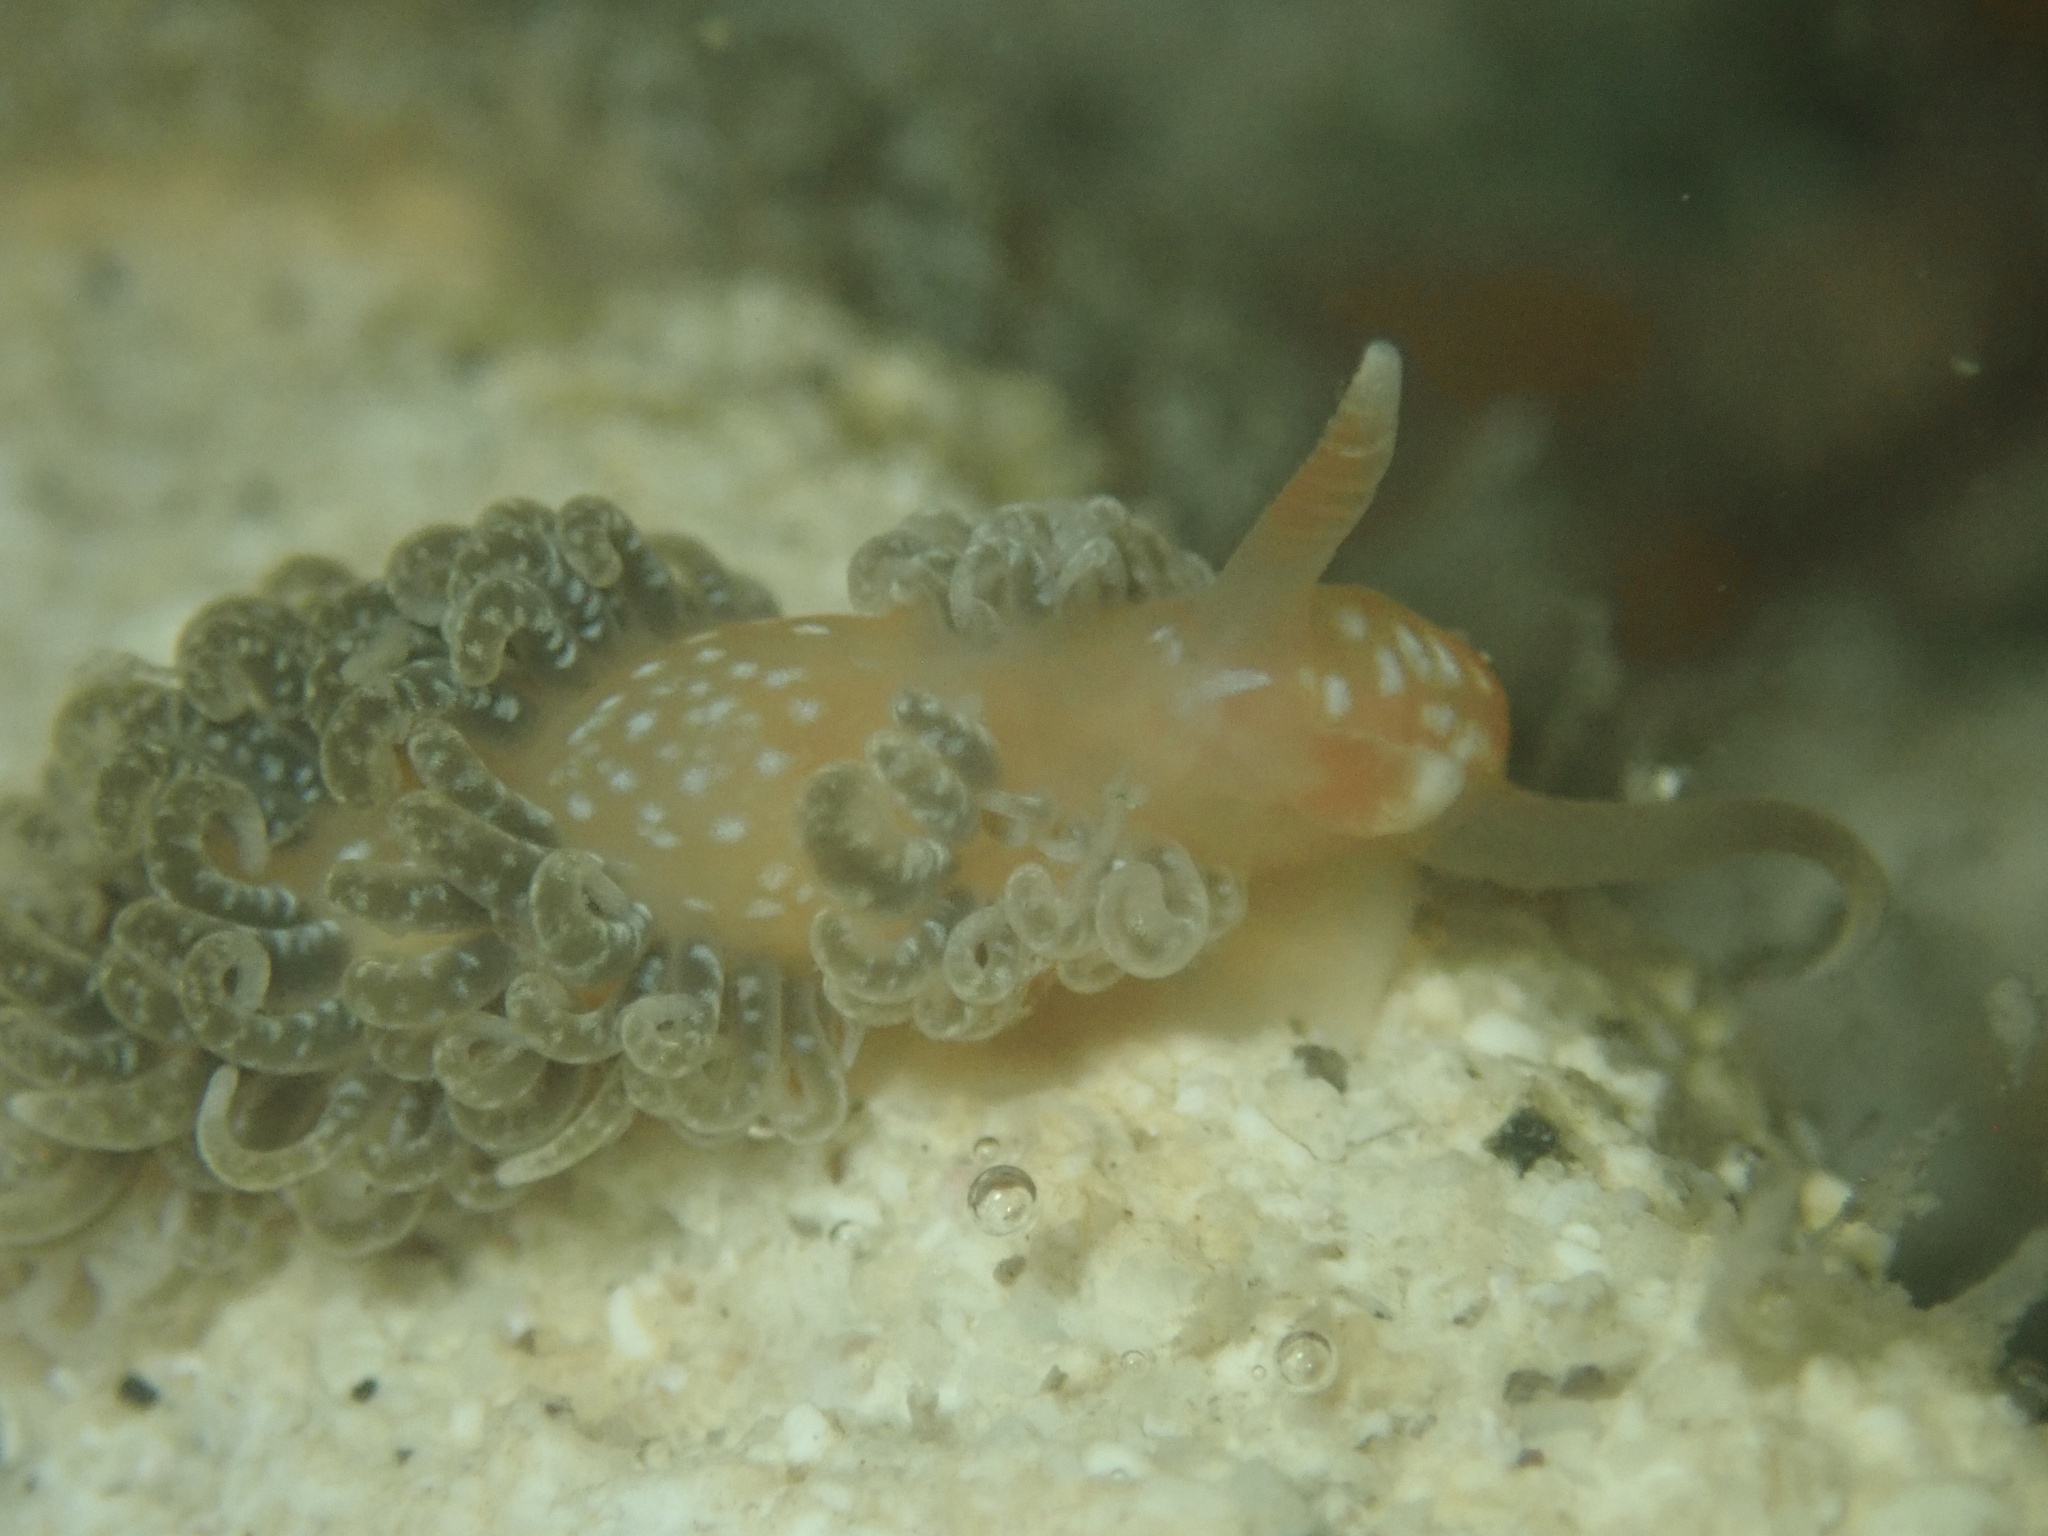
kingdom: Animalia
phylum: Mollusca
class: Gastropoda
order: Nudibranchia
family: Aeolidiidae
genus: Spurilla
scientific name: Spurilla braziliana
